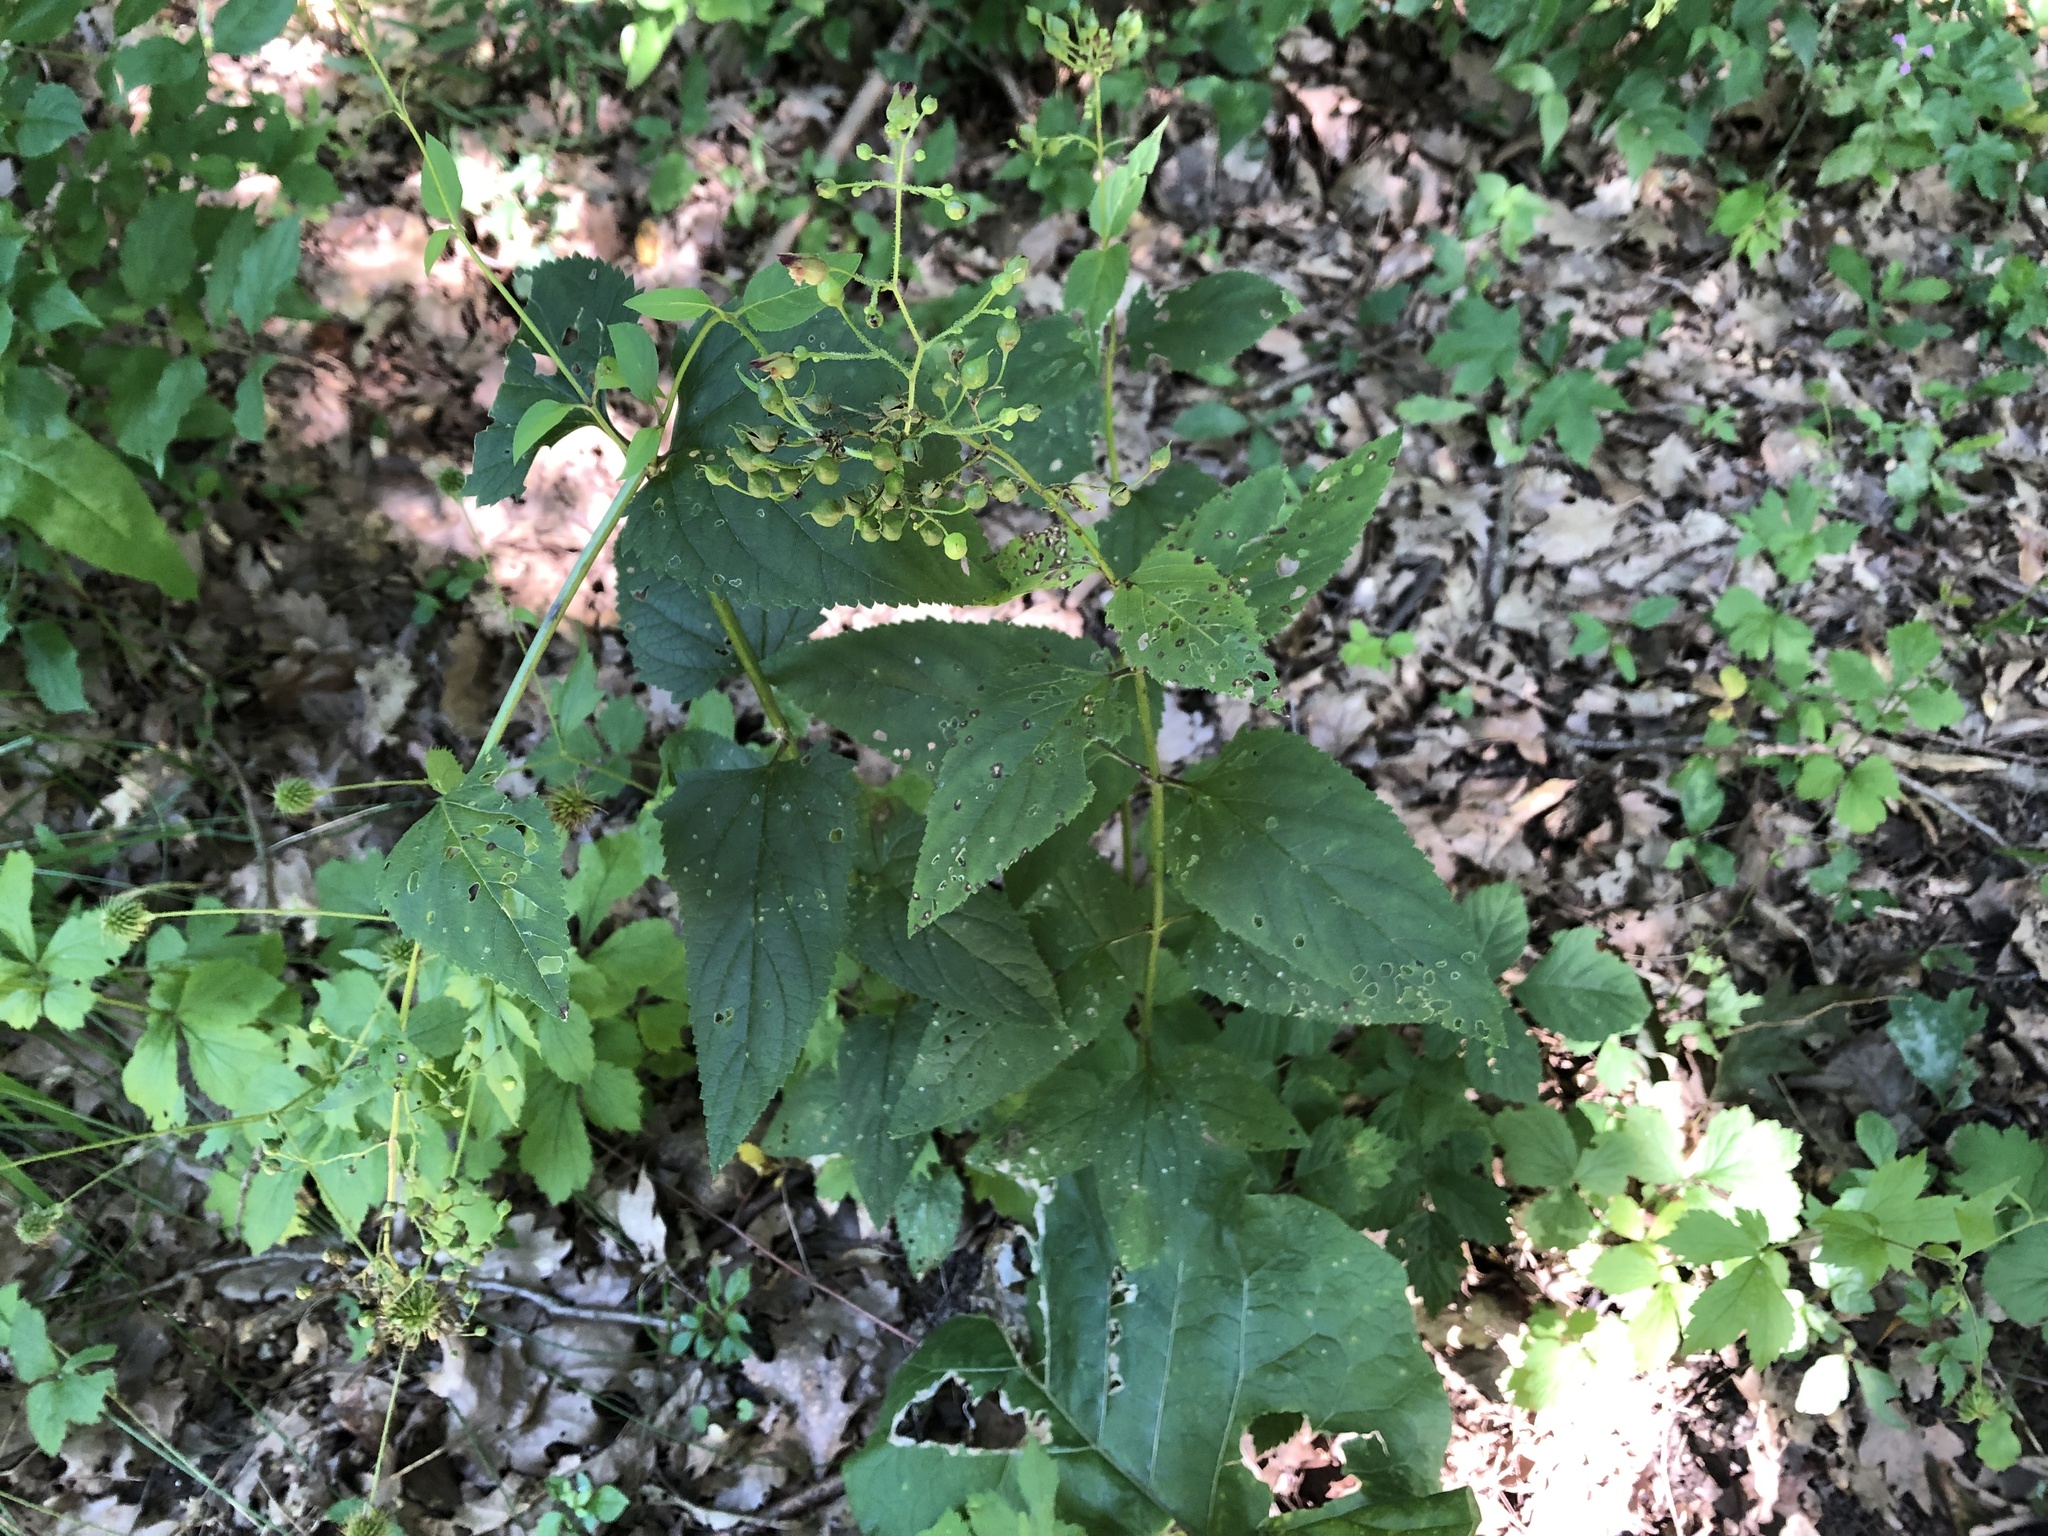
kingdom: Plantae
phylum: Tracheophyta
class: Magnoliopsida
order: Lamiales
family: Scrophulariaceae
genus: Scrophularia
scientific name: Scrophularia nodosa
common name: Common figwort
